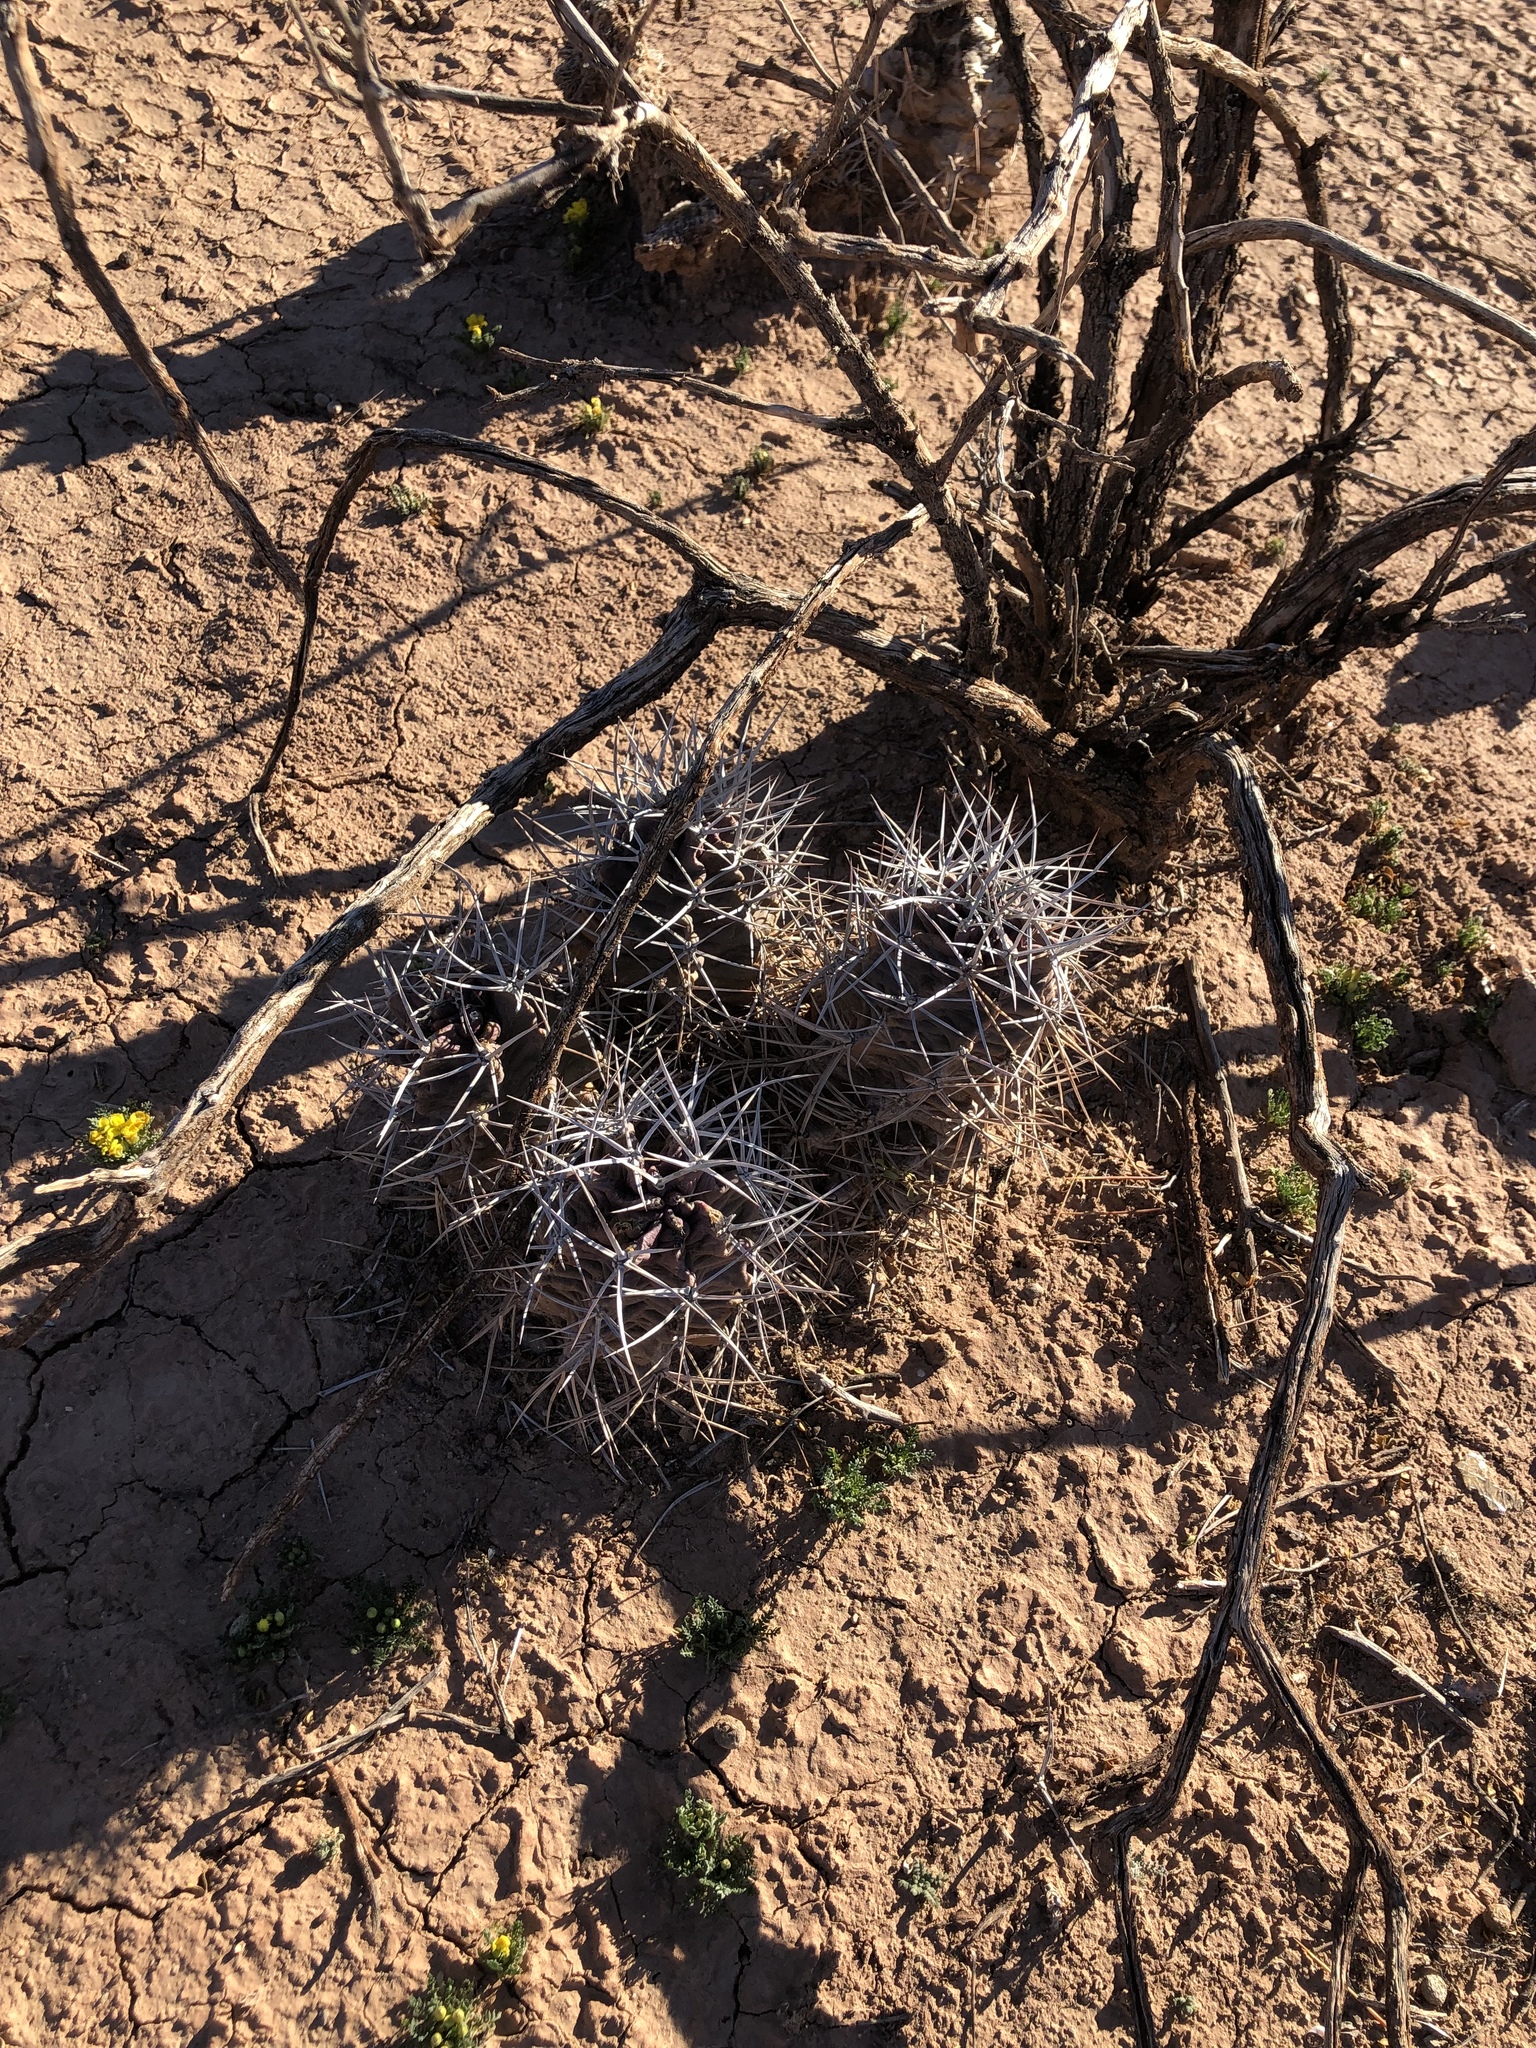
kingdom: Plantae
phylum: Tracheophyta
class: Magnoliopsida
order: Caryophyllales
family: Cactaceae
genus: Echinocereus
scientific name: Echinocereus triglochidiatus
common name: Claretcup hedgehog
